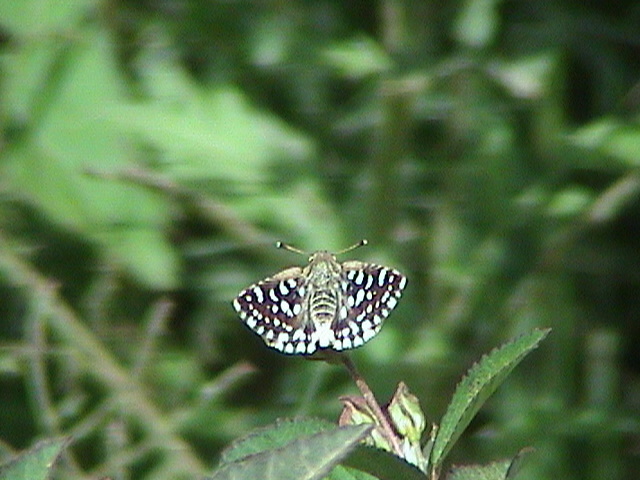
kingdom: Animalia
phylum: Arthropoda
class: Insecta
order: Lepidoptera
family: Hesperiidae
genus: Spialia
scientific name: Spialia galba
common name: Indian skipper
